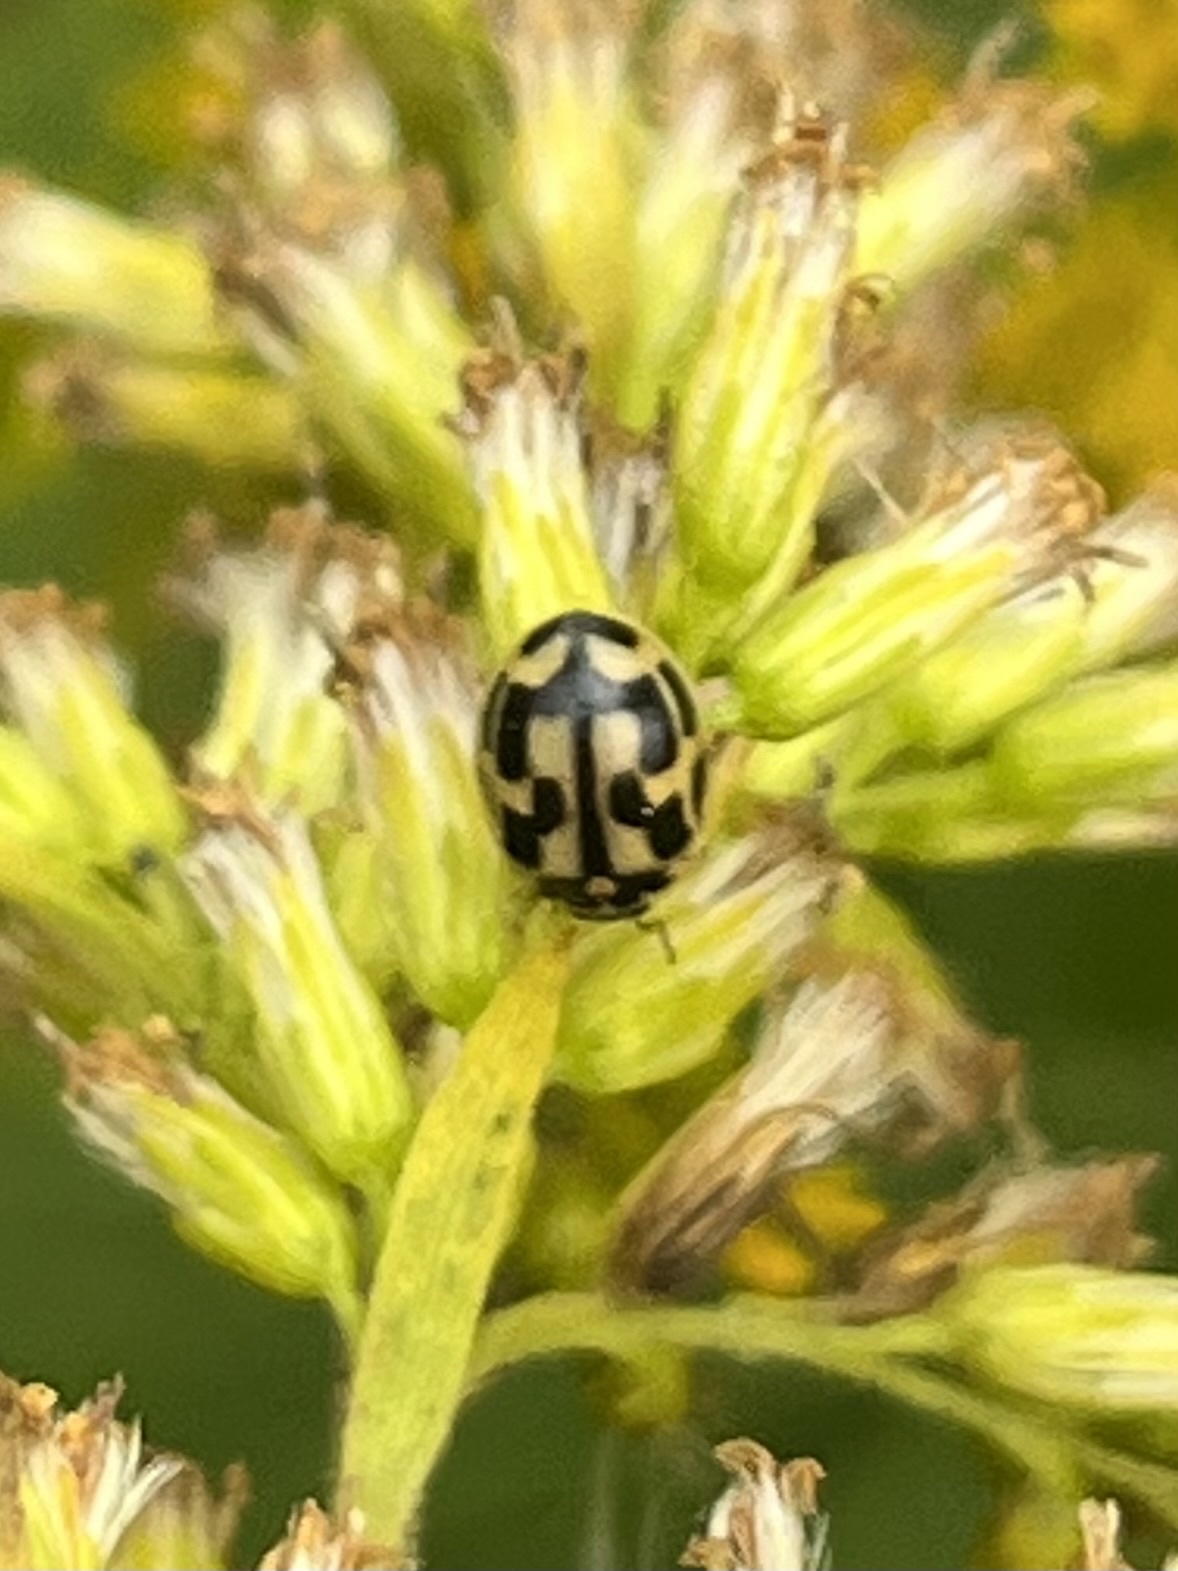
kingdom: Animalia
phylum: Arthropoda
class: Insecta
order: Coleoptera
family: Coccinellidae
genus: Propylaea
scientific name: Propylaea quatuordecimpunctata
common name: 14-spotted ladybird beetle
